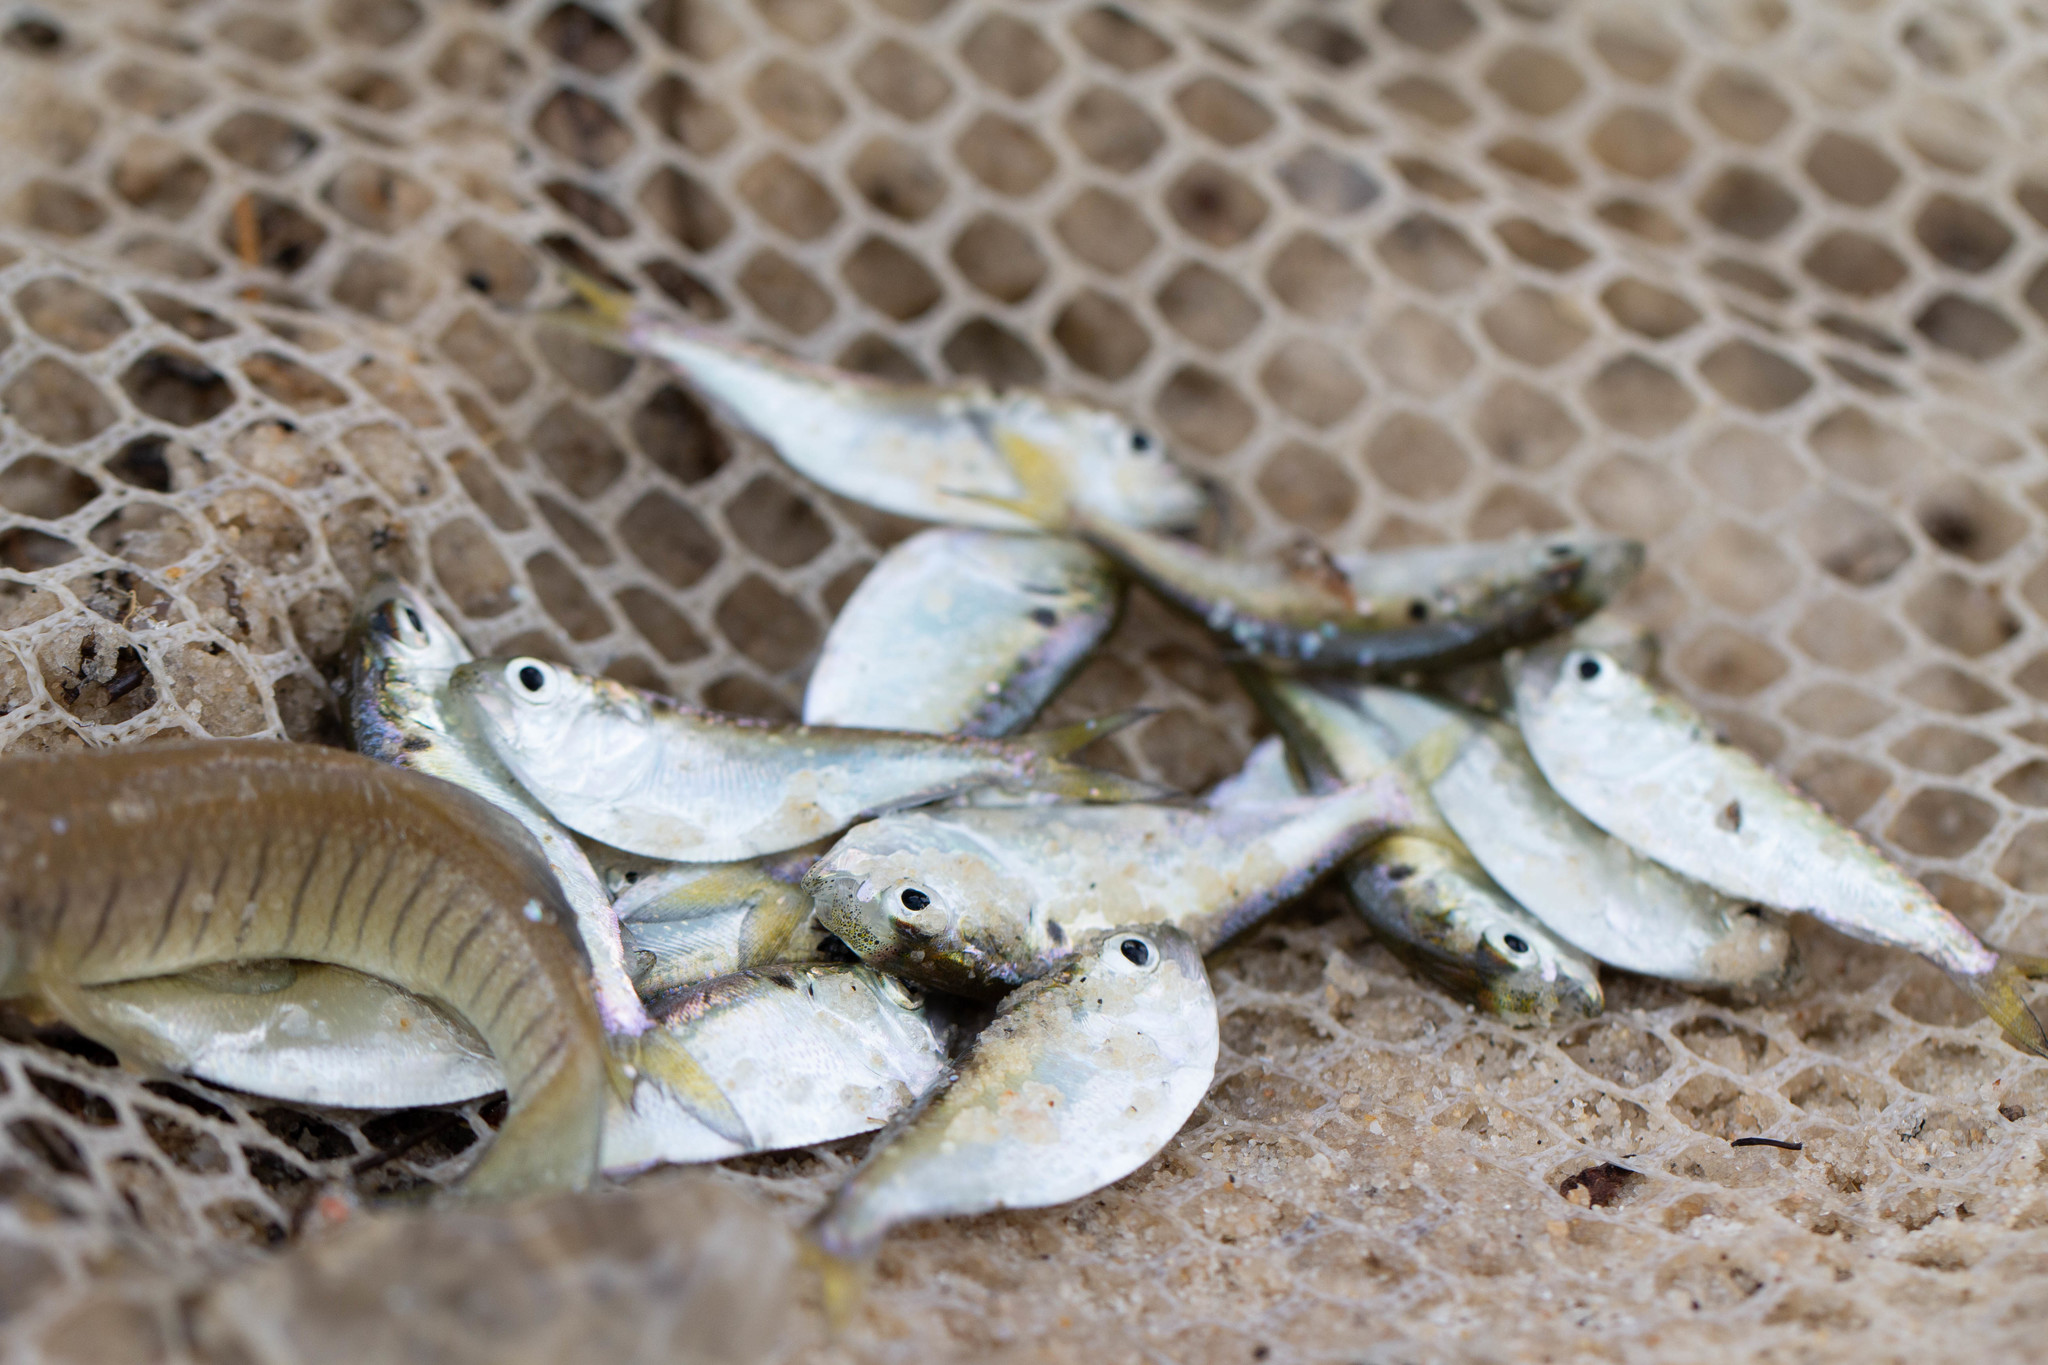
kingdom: Animalia
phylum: Chordata
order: Clupeiformes
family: Clupeidae
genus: Brevoortia
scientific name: Brevoortia patronus
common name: Gulf menhaden
